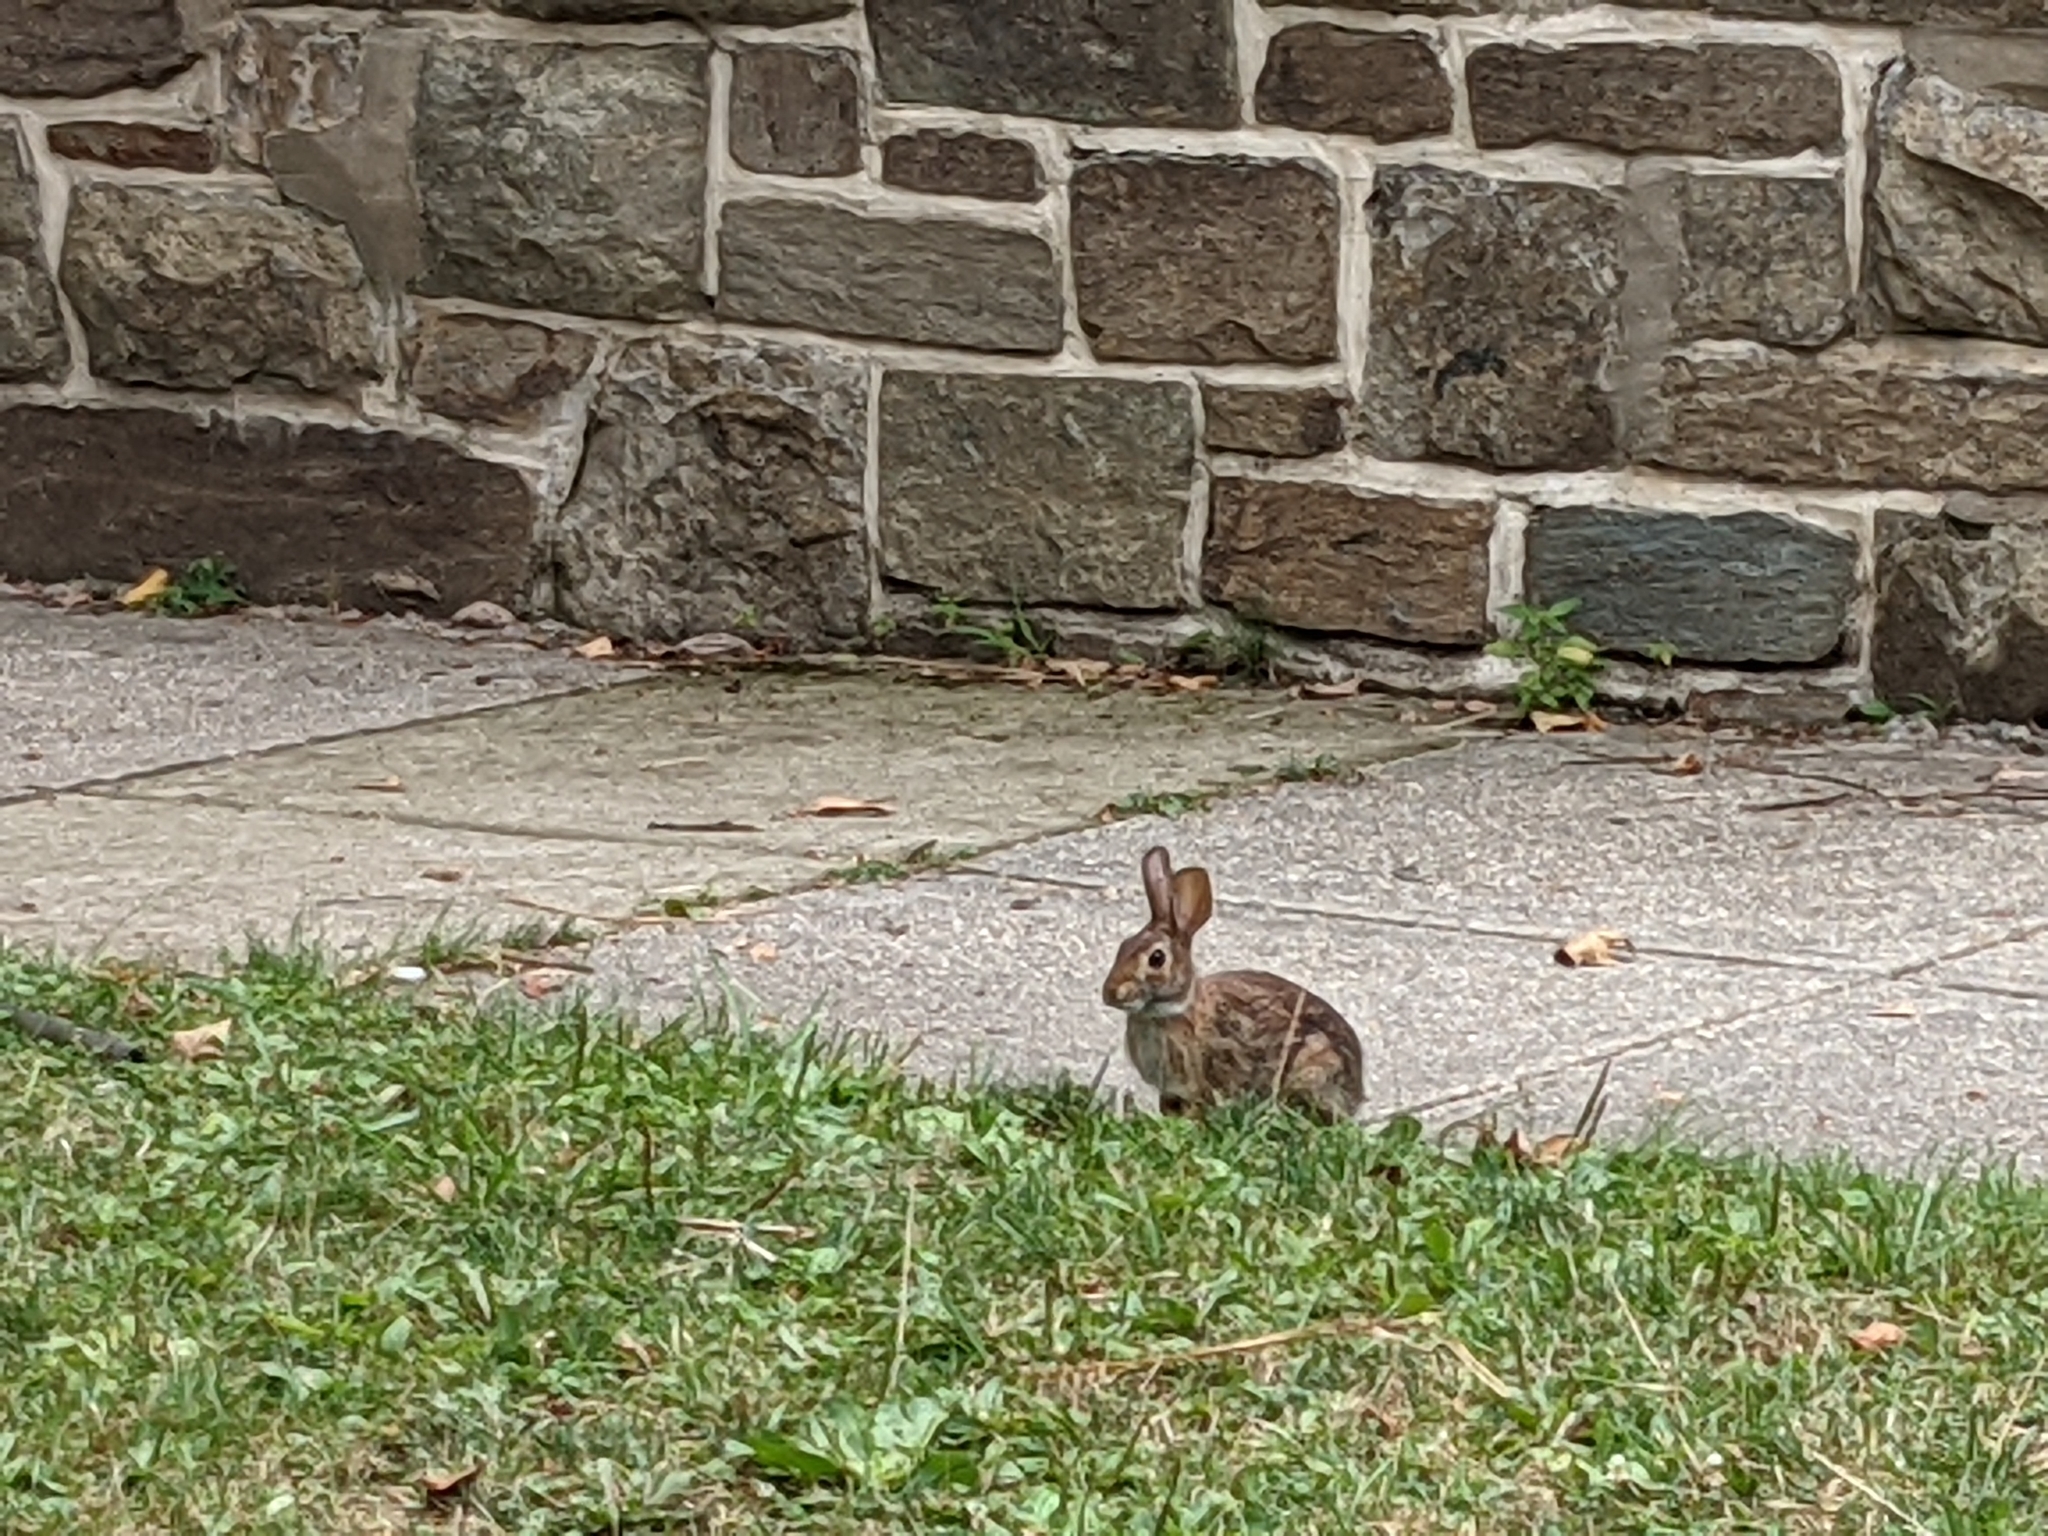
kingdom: Animalia
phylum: Chordata
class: Mammalia
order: Lagomorpha
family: Leporidae
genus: Sylvilagus
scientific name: Sylvilagus floridanus
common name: Eastern cottontail
